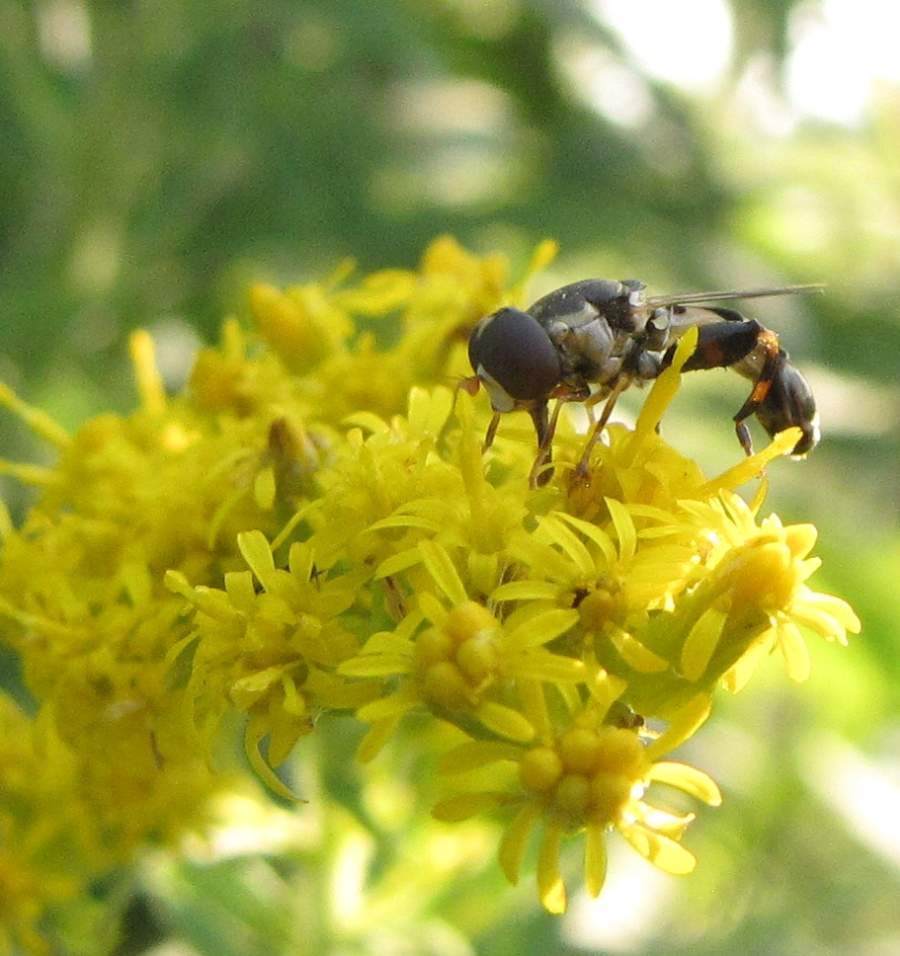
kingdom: Animalia
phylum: Arthropoda
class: Insecta
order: Diptera
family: Syrphidae
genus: Syritta
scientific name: Syritta pipiens
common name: Hover fly
